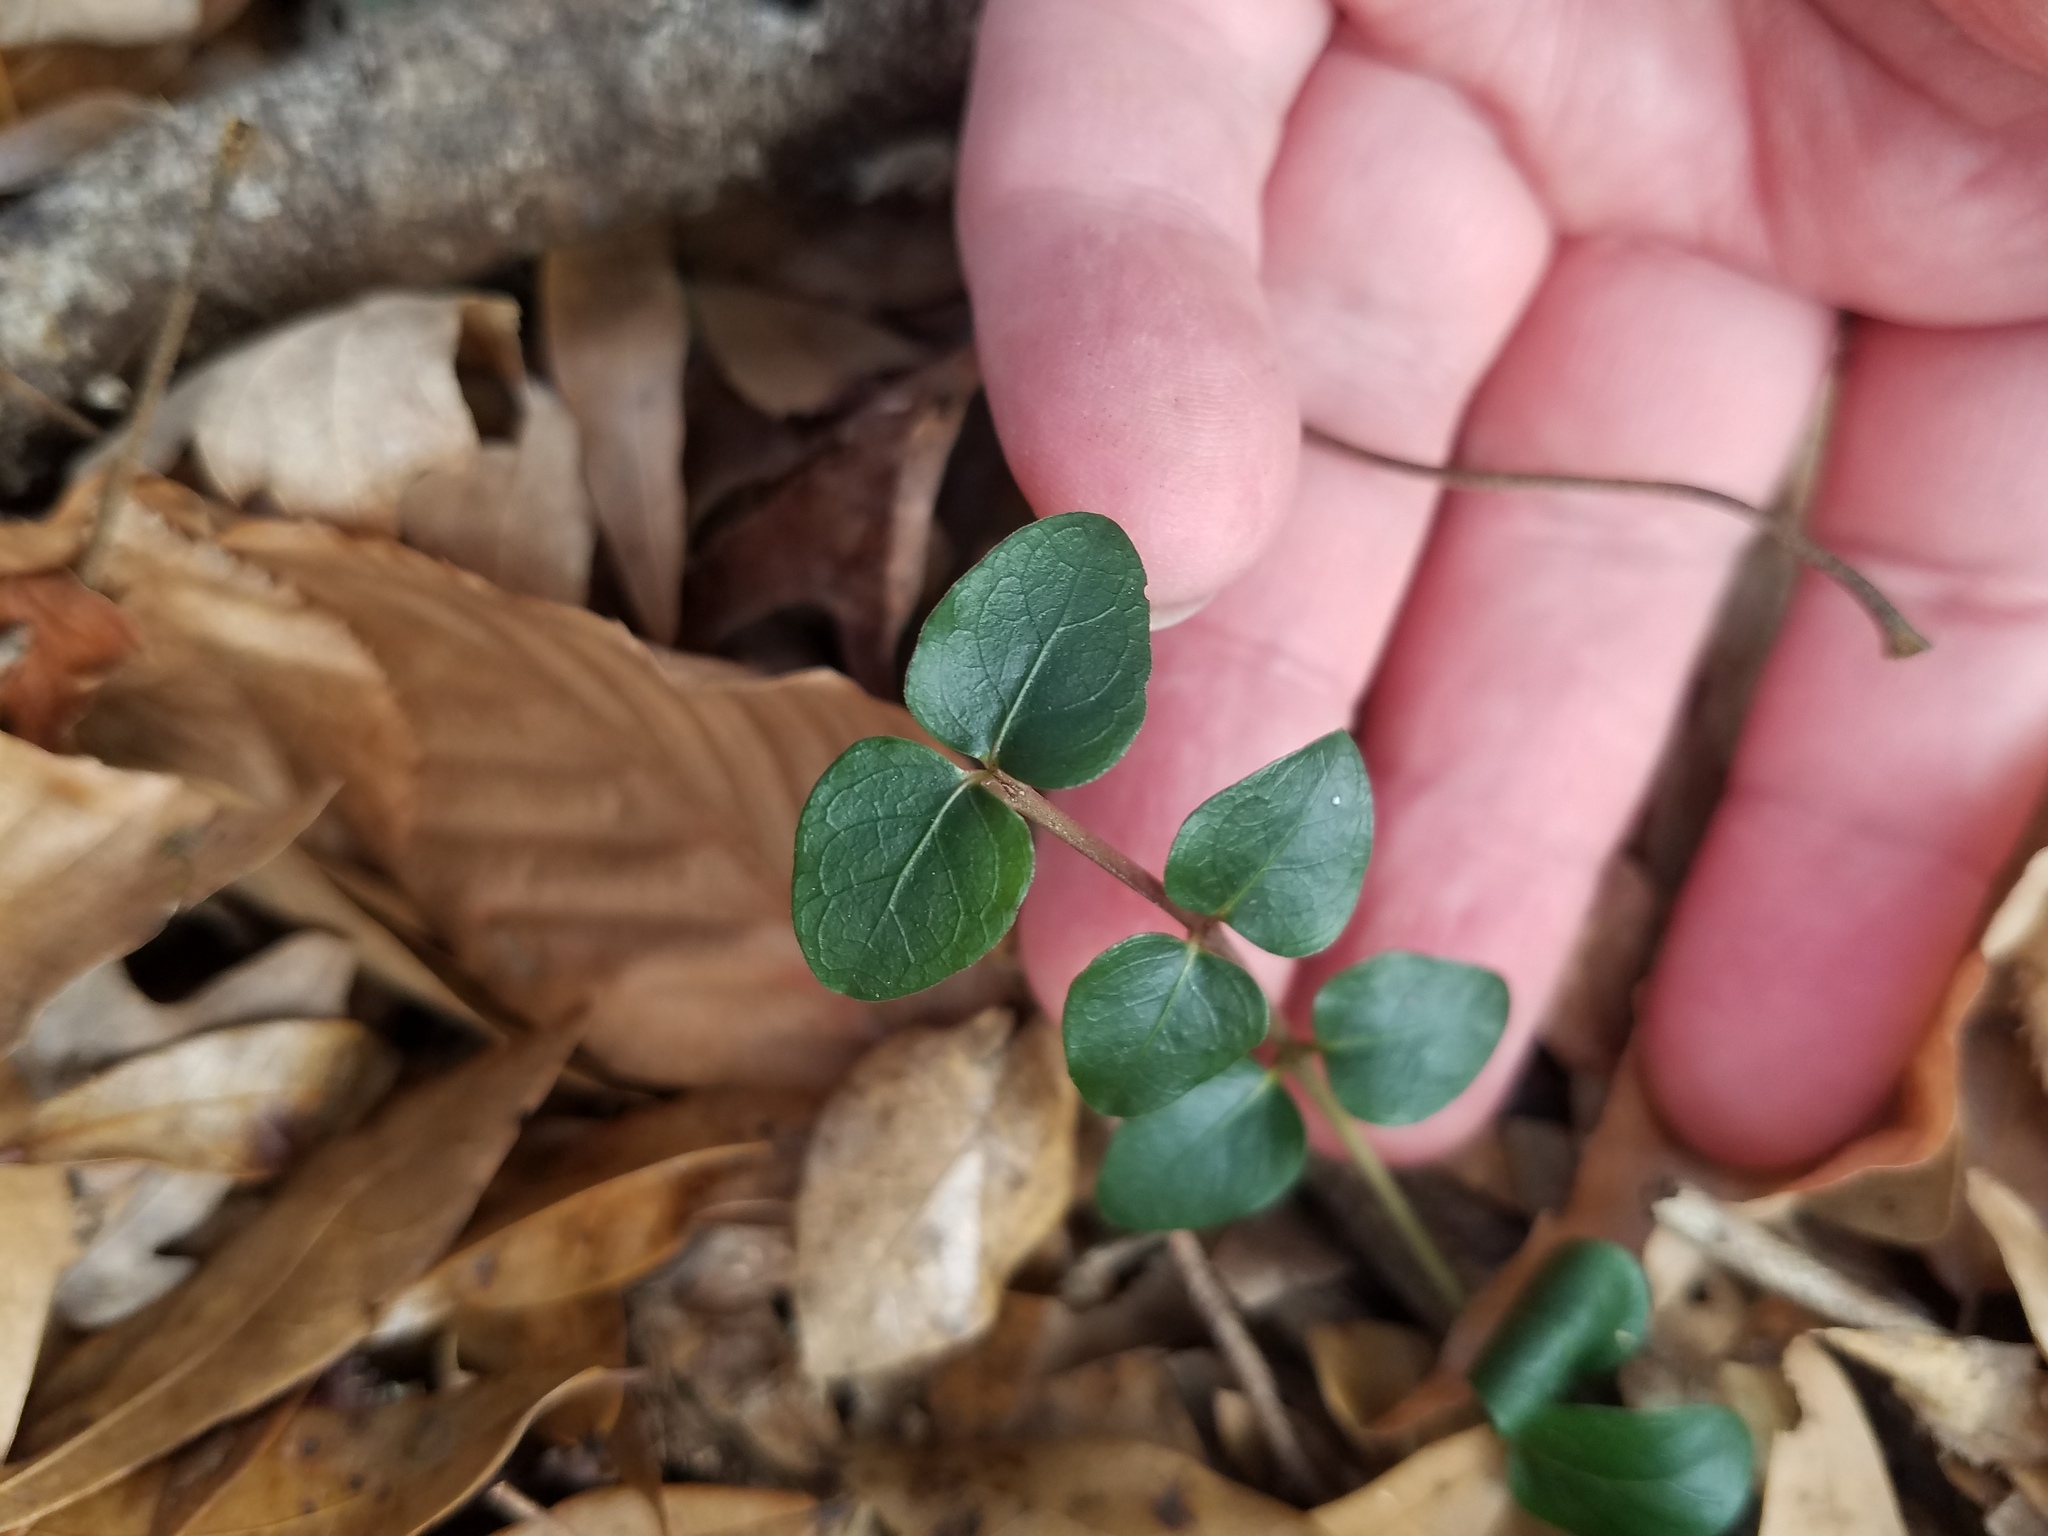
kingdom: Plantae
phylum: Tracheophyta
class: Magnoliopsida
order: Gentianales
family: Rubiaceae
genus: Mitchella
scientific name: Mitchella repens
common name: Partridge-berry
